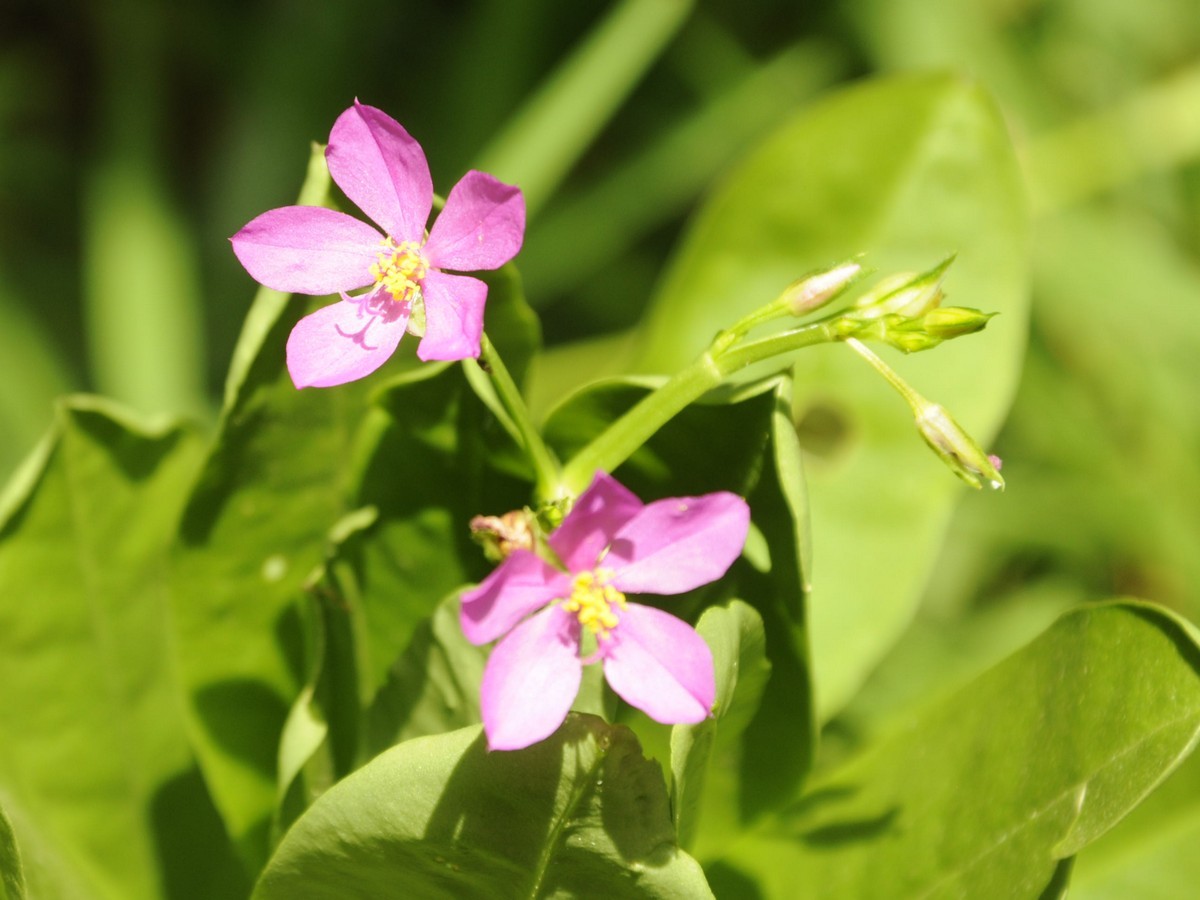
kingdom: Plantae
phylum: Tracheophyta
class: Magnoliopsida
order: Caryophyllales
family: Talinaceae
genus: Talinum
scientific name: Talinum fruticosum
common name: Verdolaga-francesa
